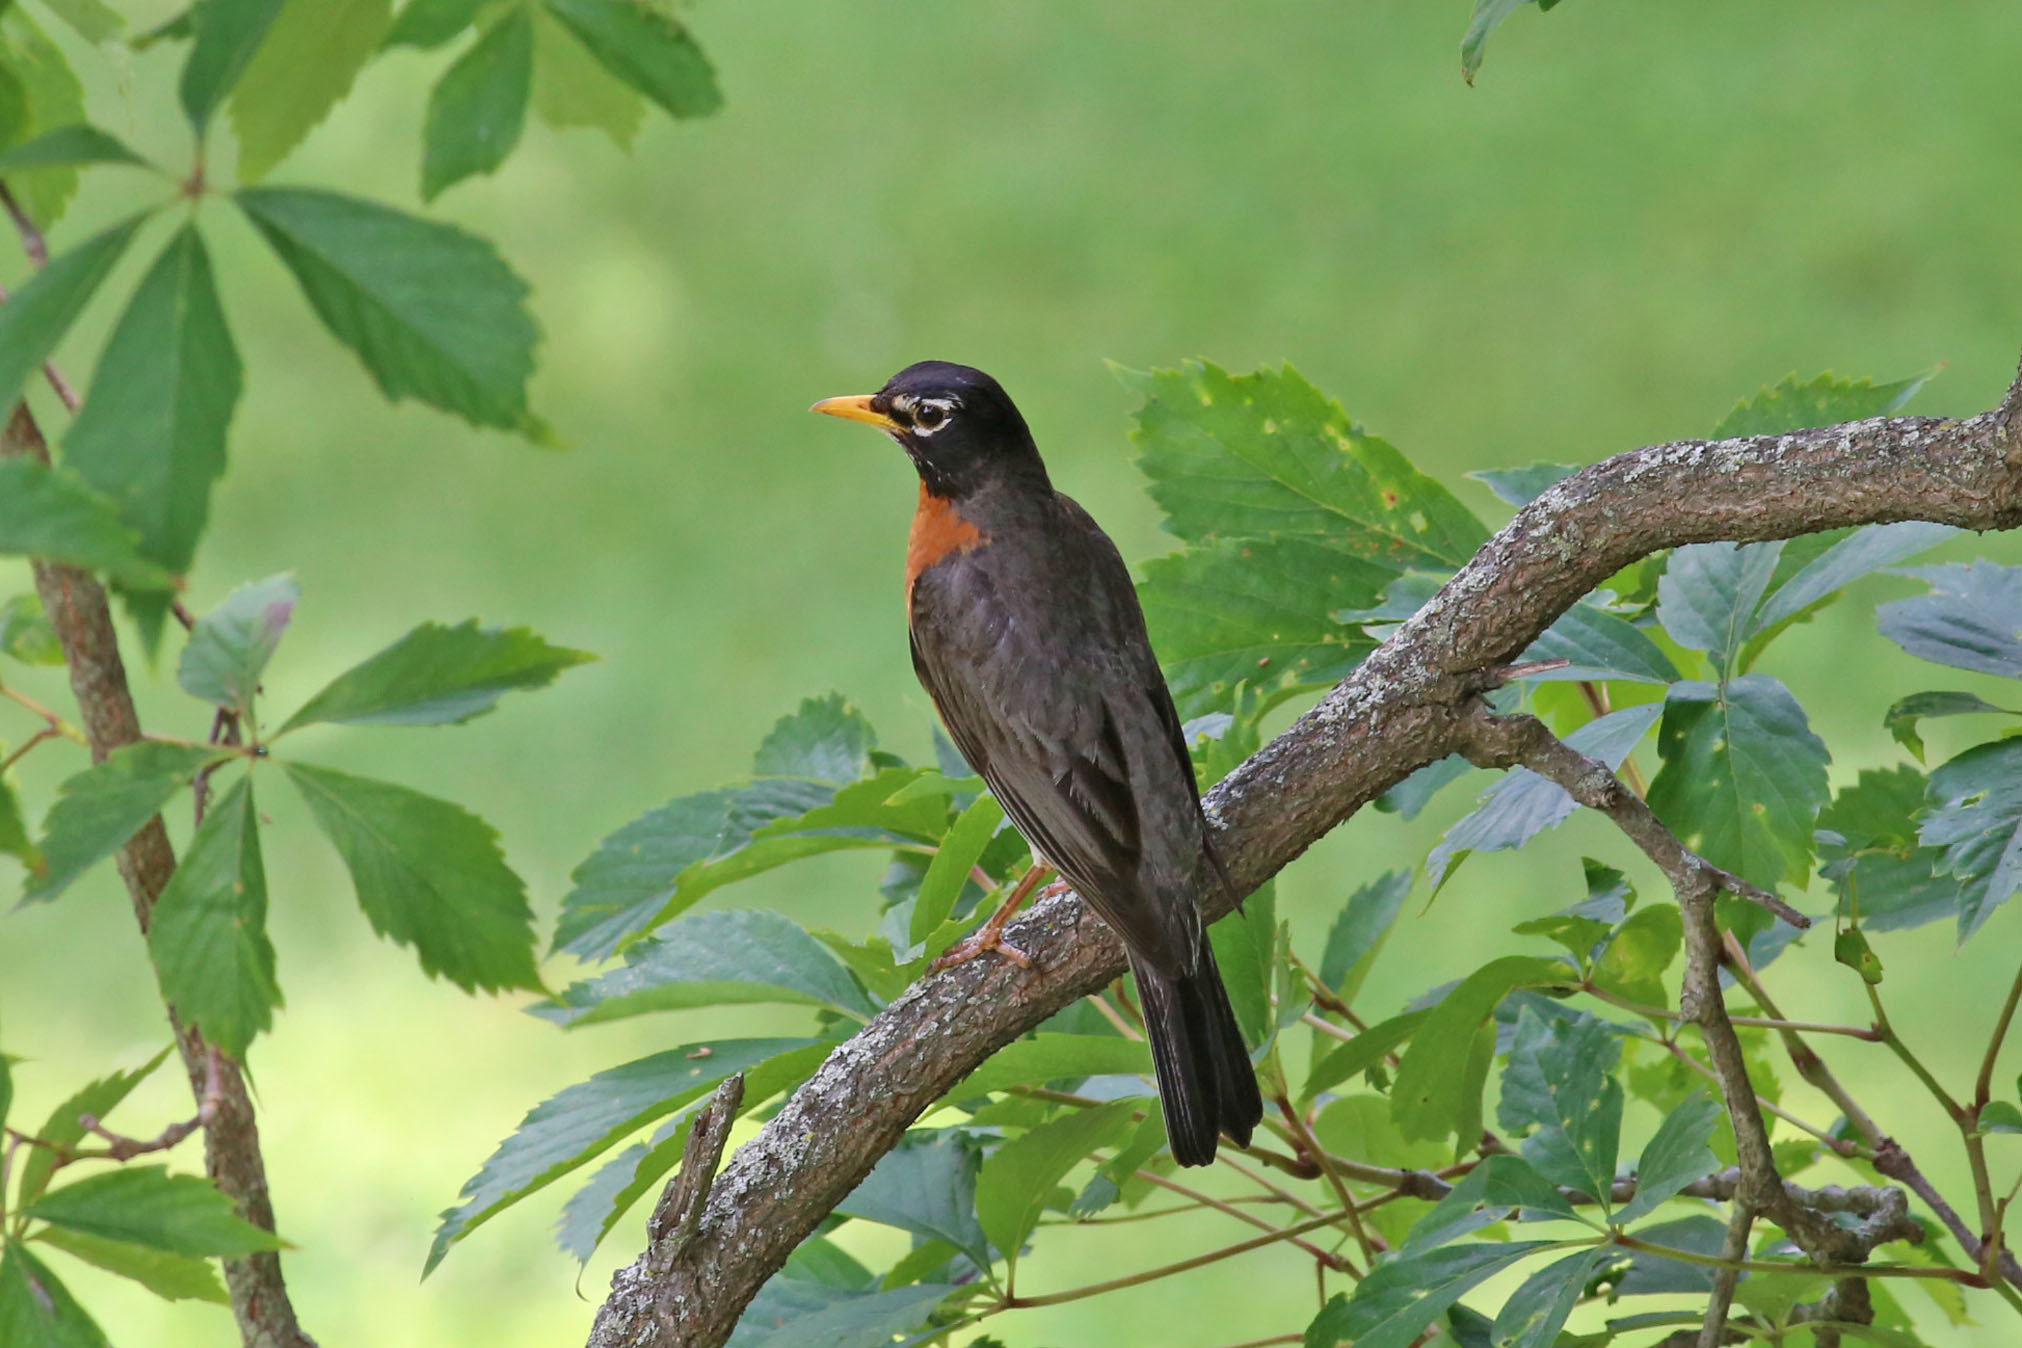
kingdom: Animalia
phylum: Chordata
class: Aves
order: Passeriformes
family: Turdidae
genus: Turdus
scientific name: Turdus migratorius
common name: American robin
